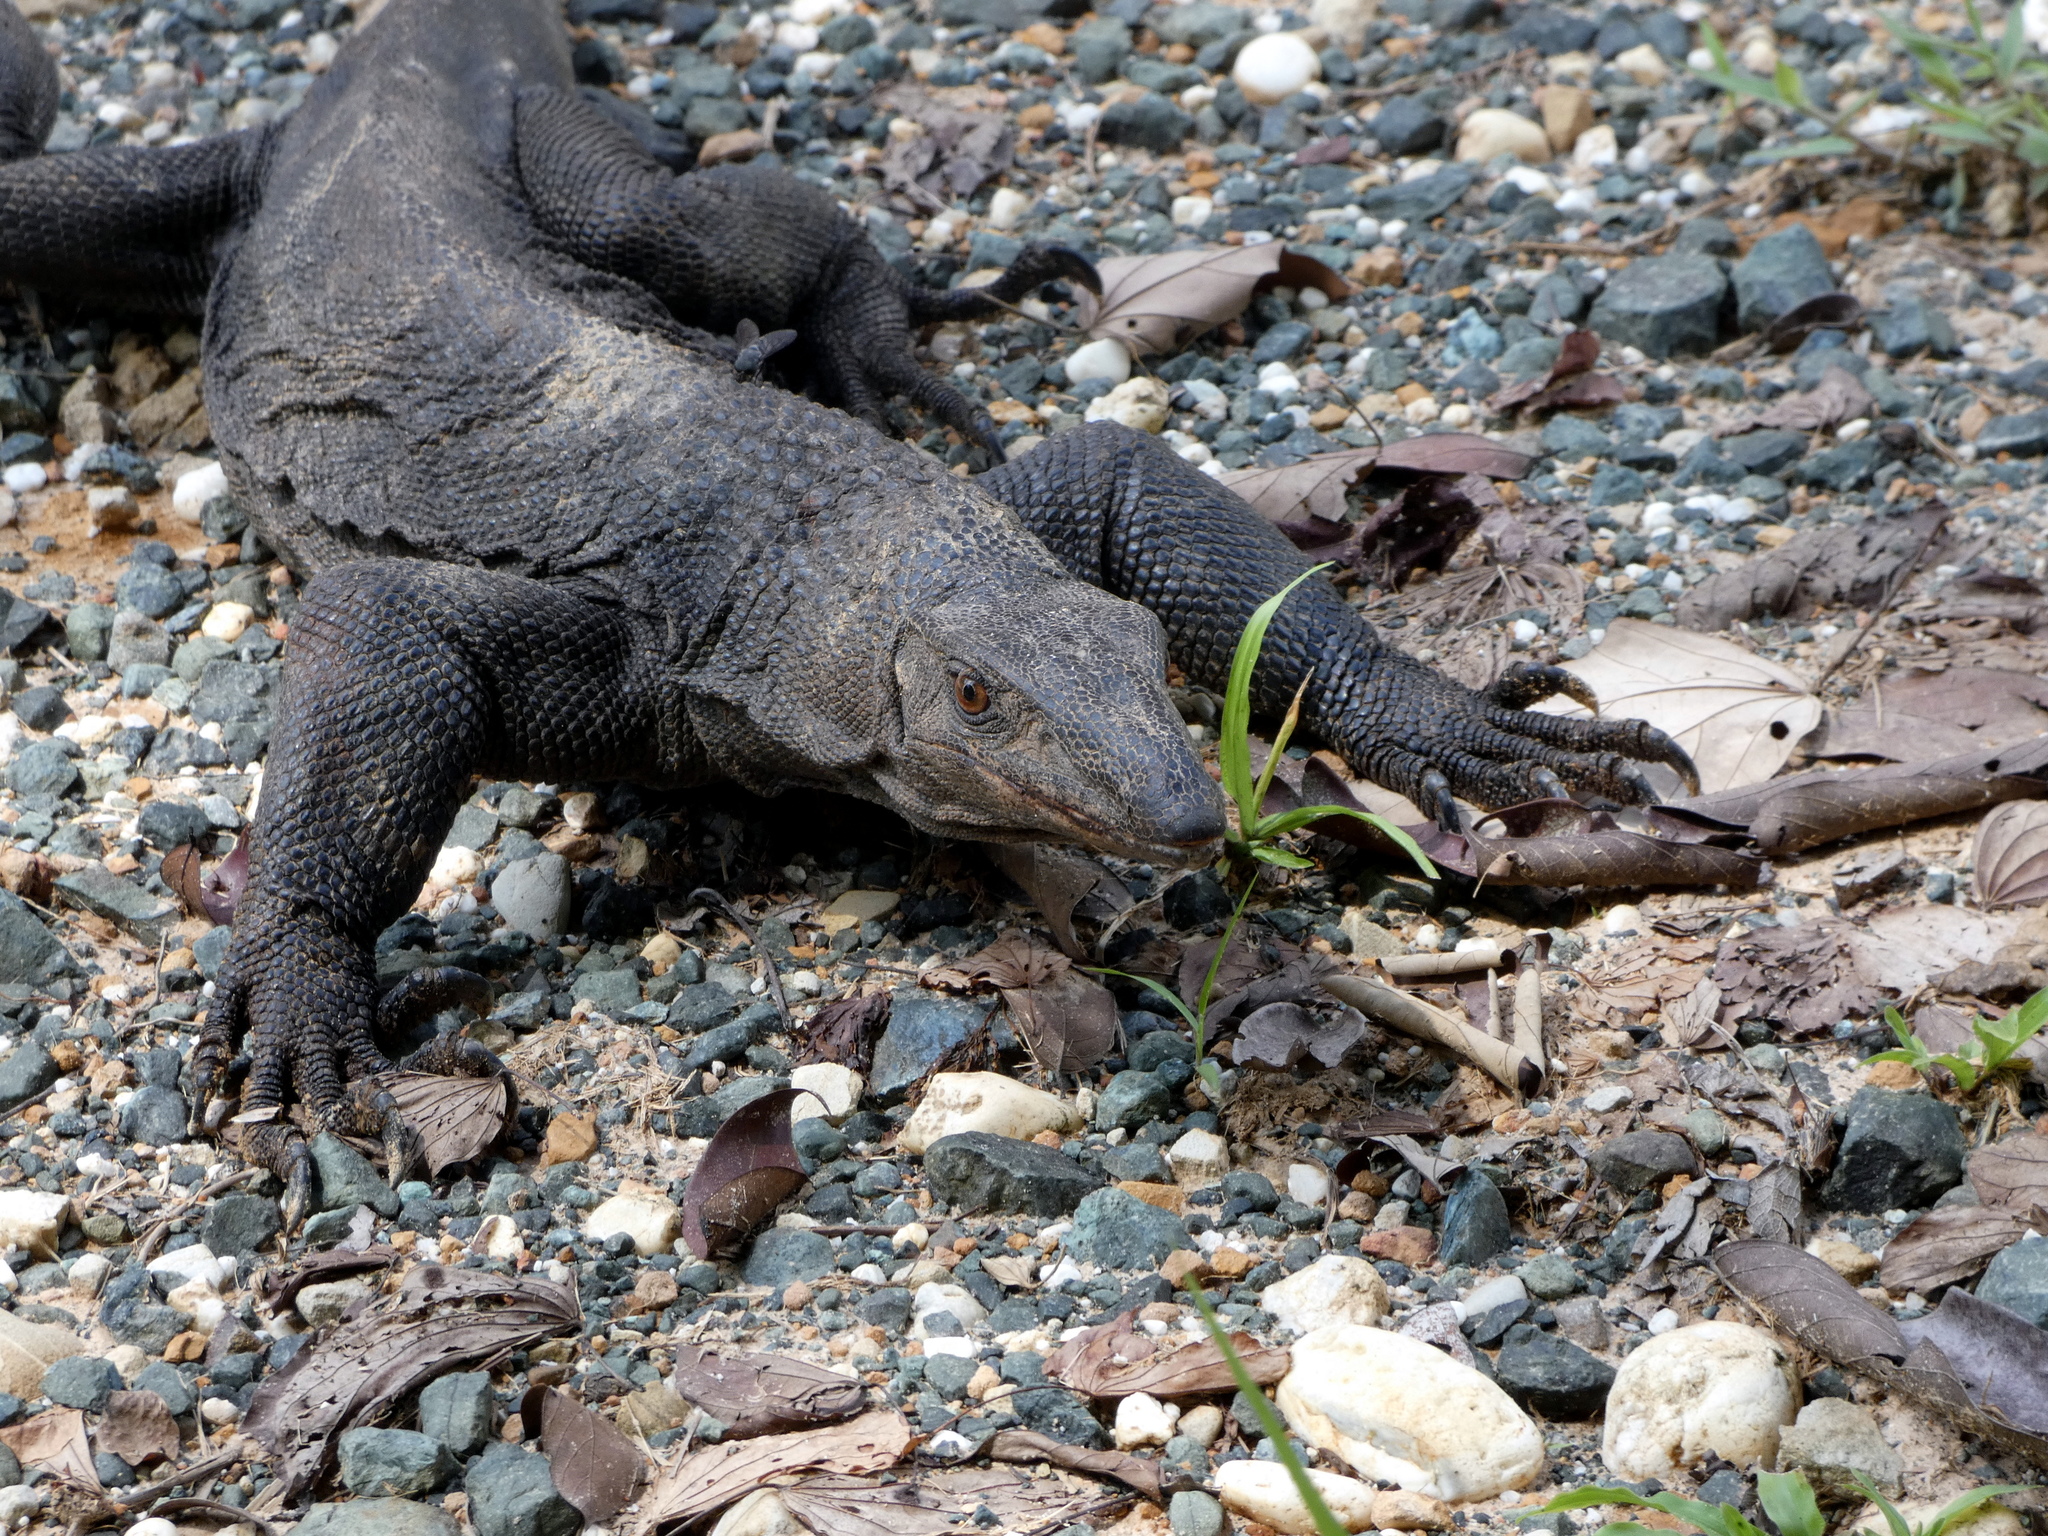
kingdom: Animalia
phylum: Chordata
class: Squamata
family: Varanidae
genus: Varanus
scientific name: Varanus rudicollis
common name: Roughneck monitor
